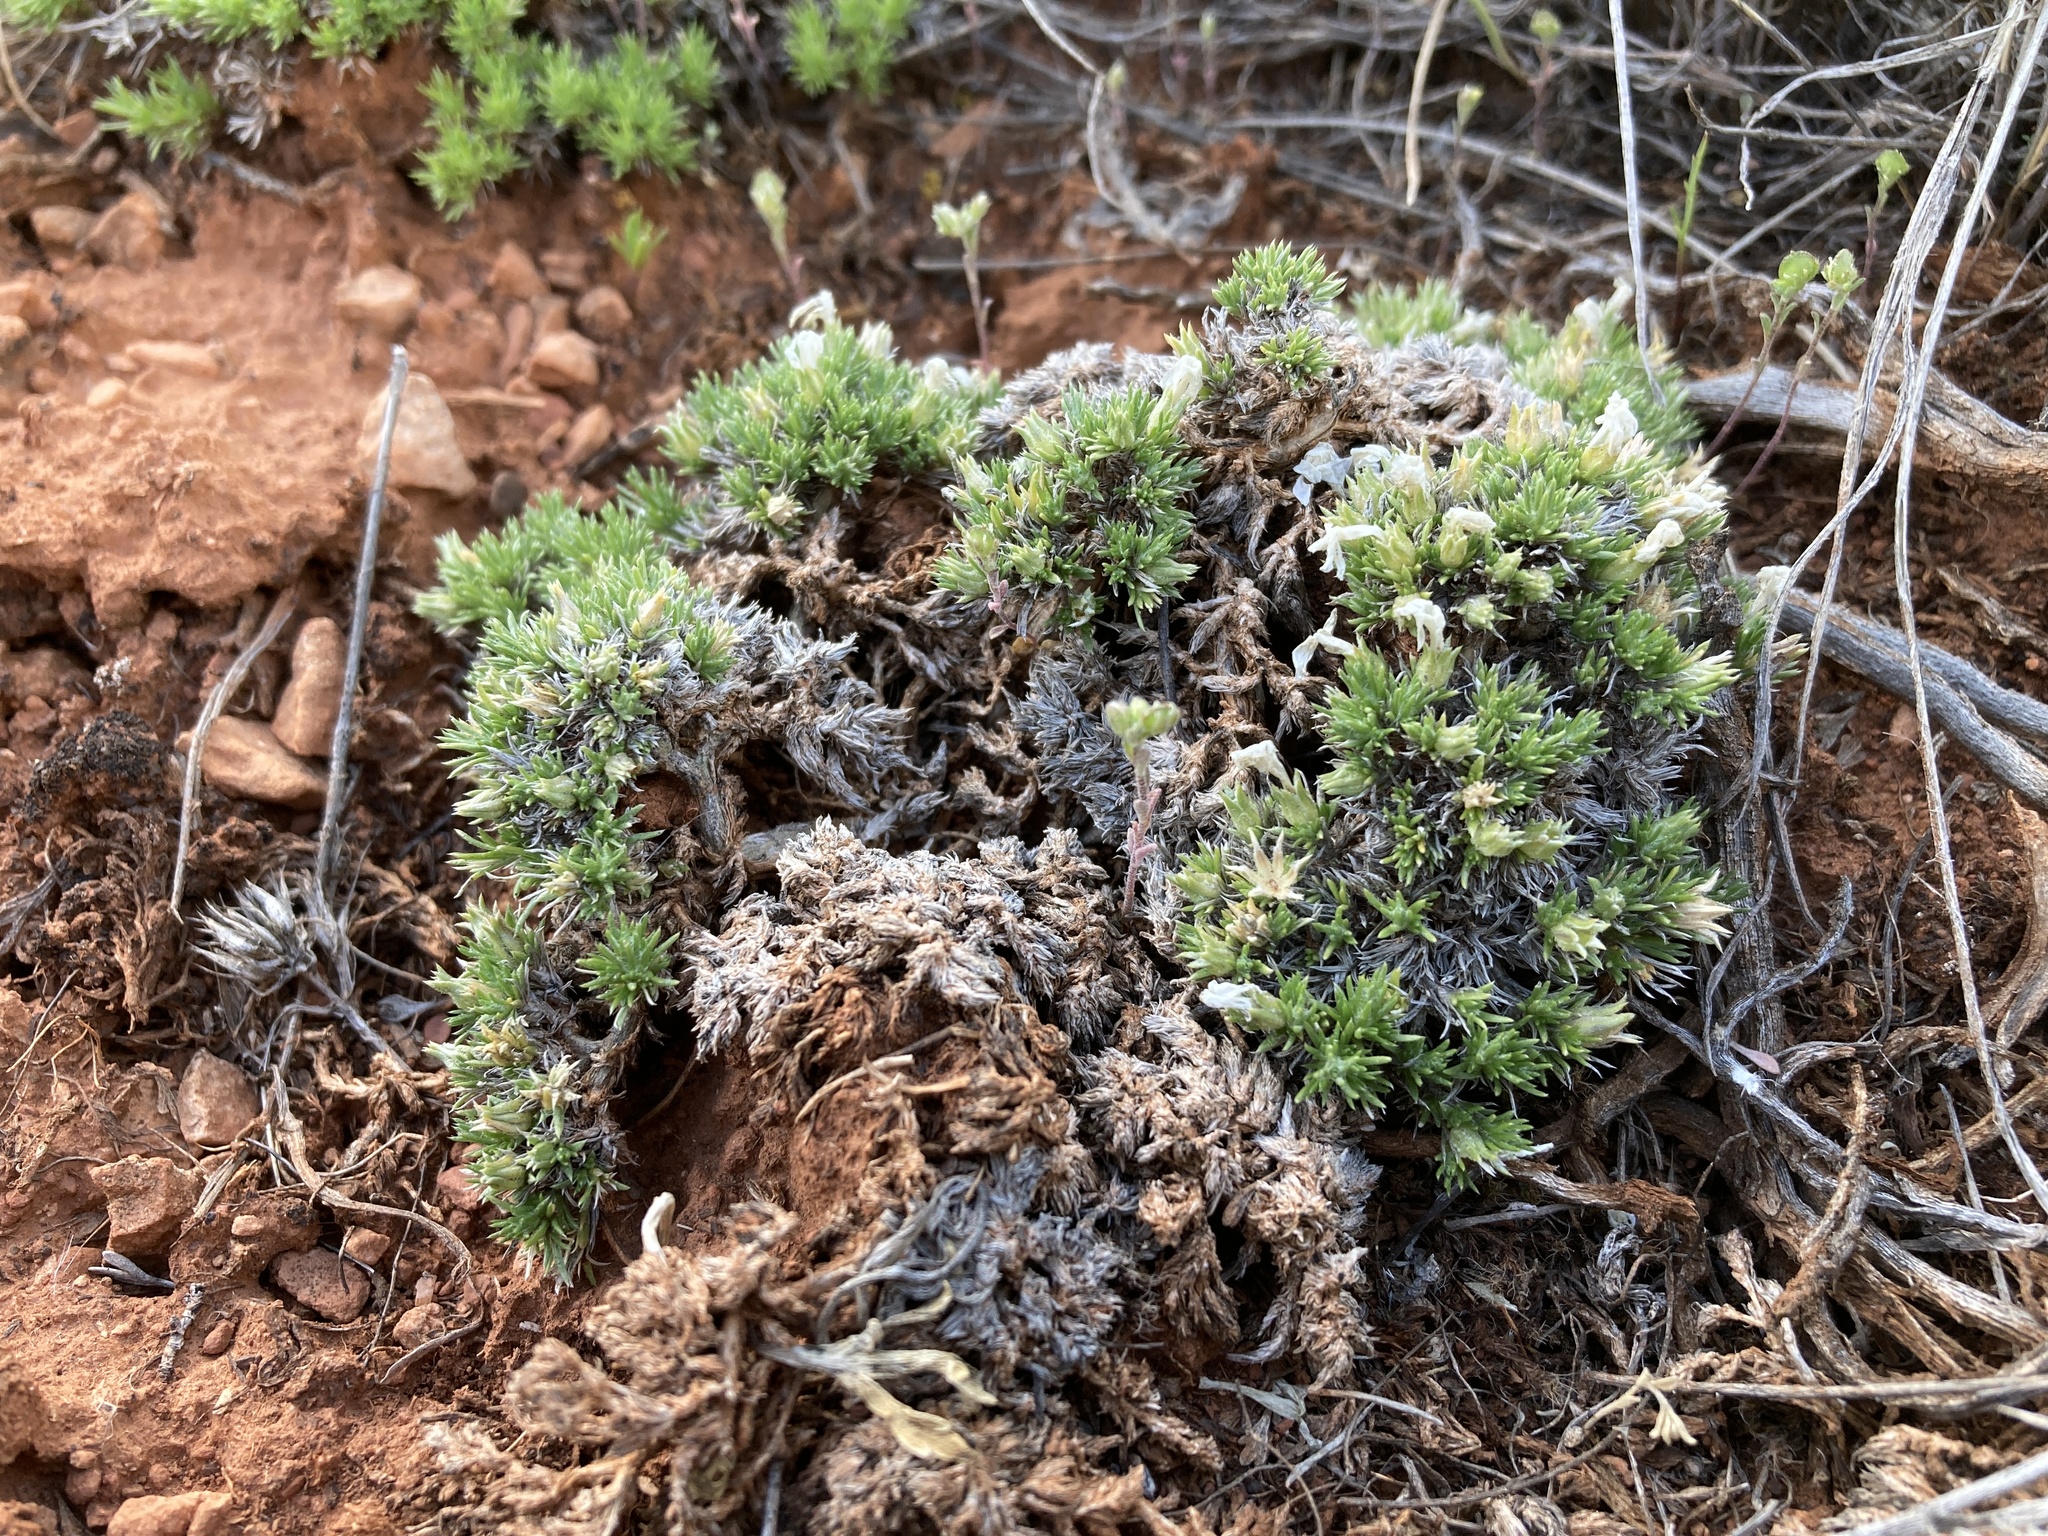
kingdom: Plantae
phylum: Tracheophyta
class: Magnoliopsida
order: Ericales
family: Polemoniaceae
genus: Phlox
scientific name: Phlox hoodii
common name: Moss phlox
